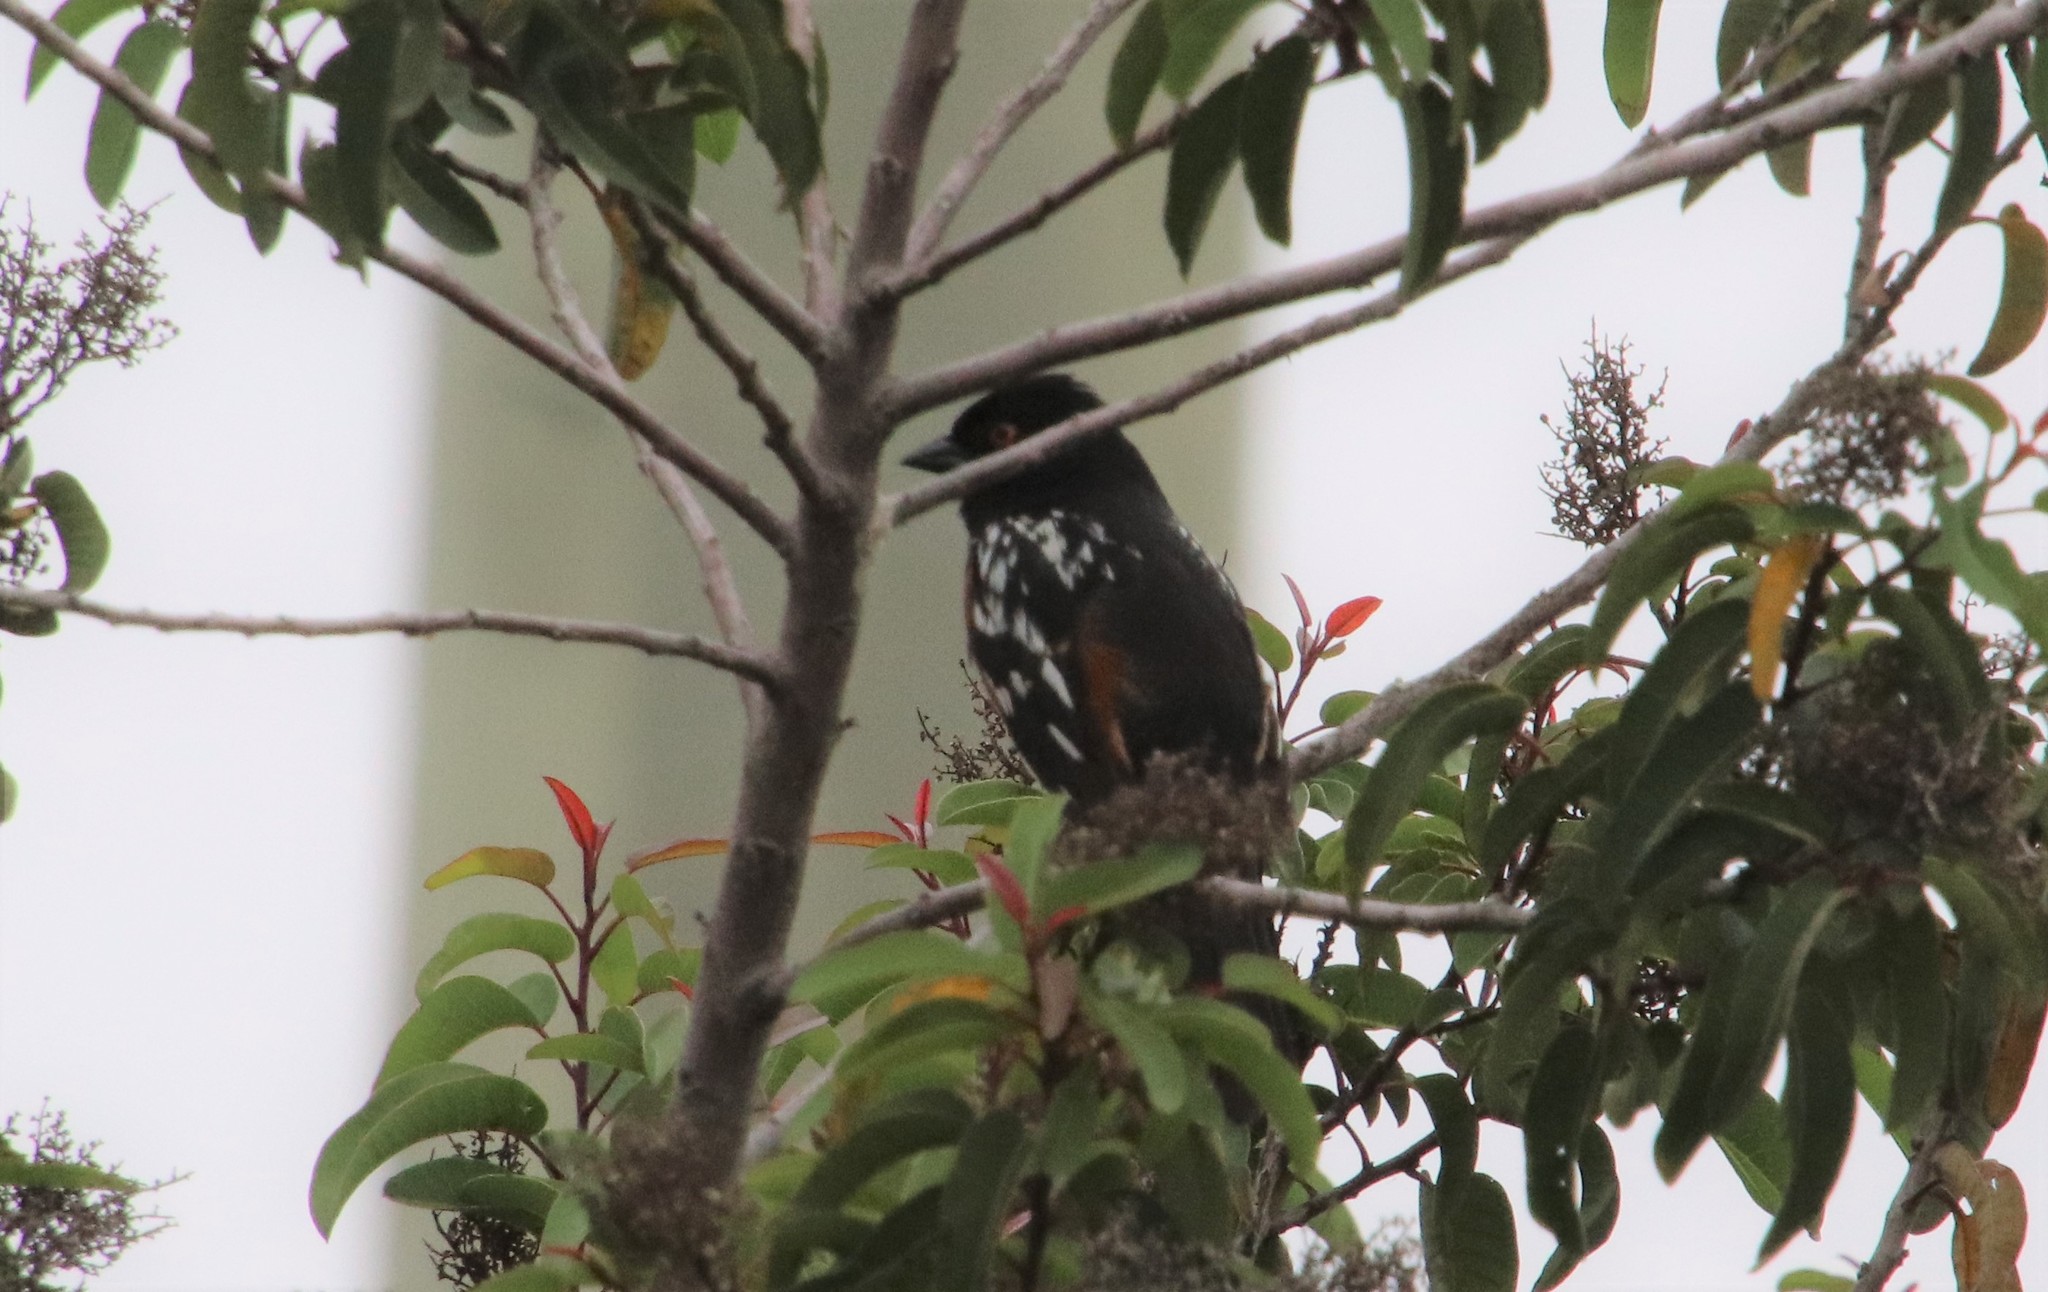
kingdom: Animalia
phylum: Chordata
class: Aves
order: Passeriformes
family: Passerellidae
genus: Pipilo
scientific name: Pipilo maculatus
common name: Spotted towhee
